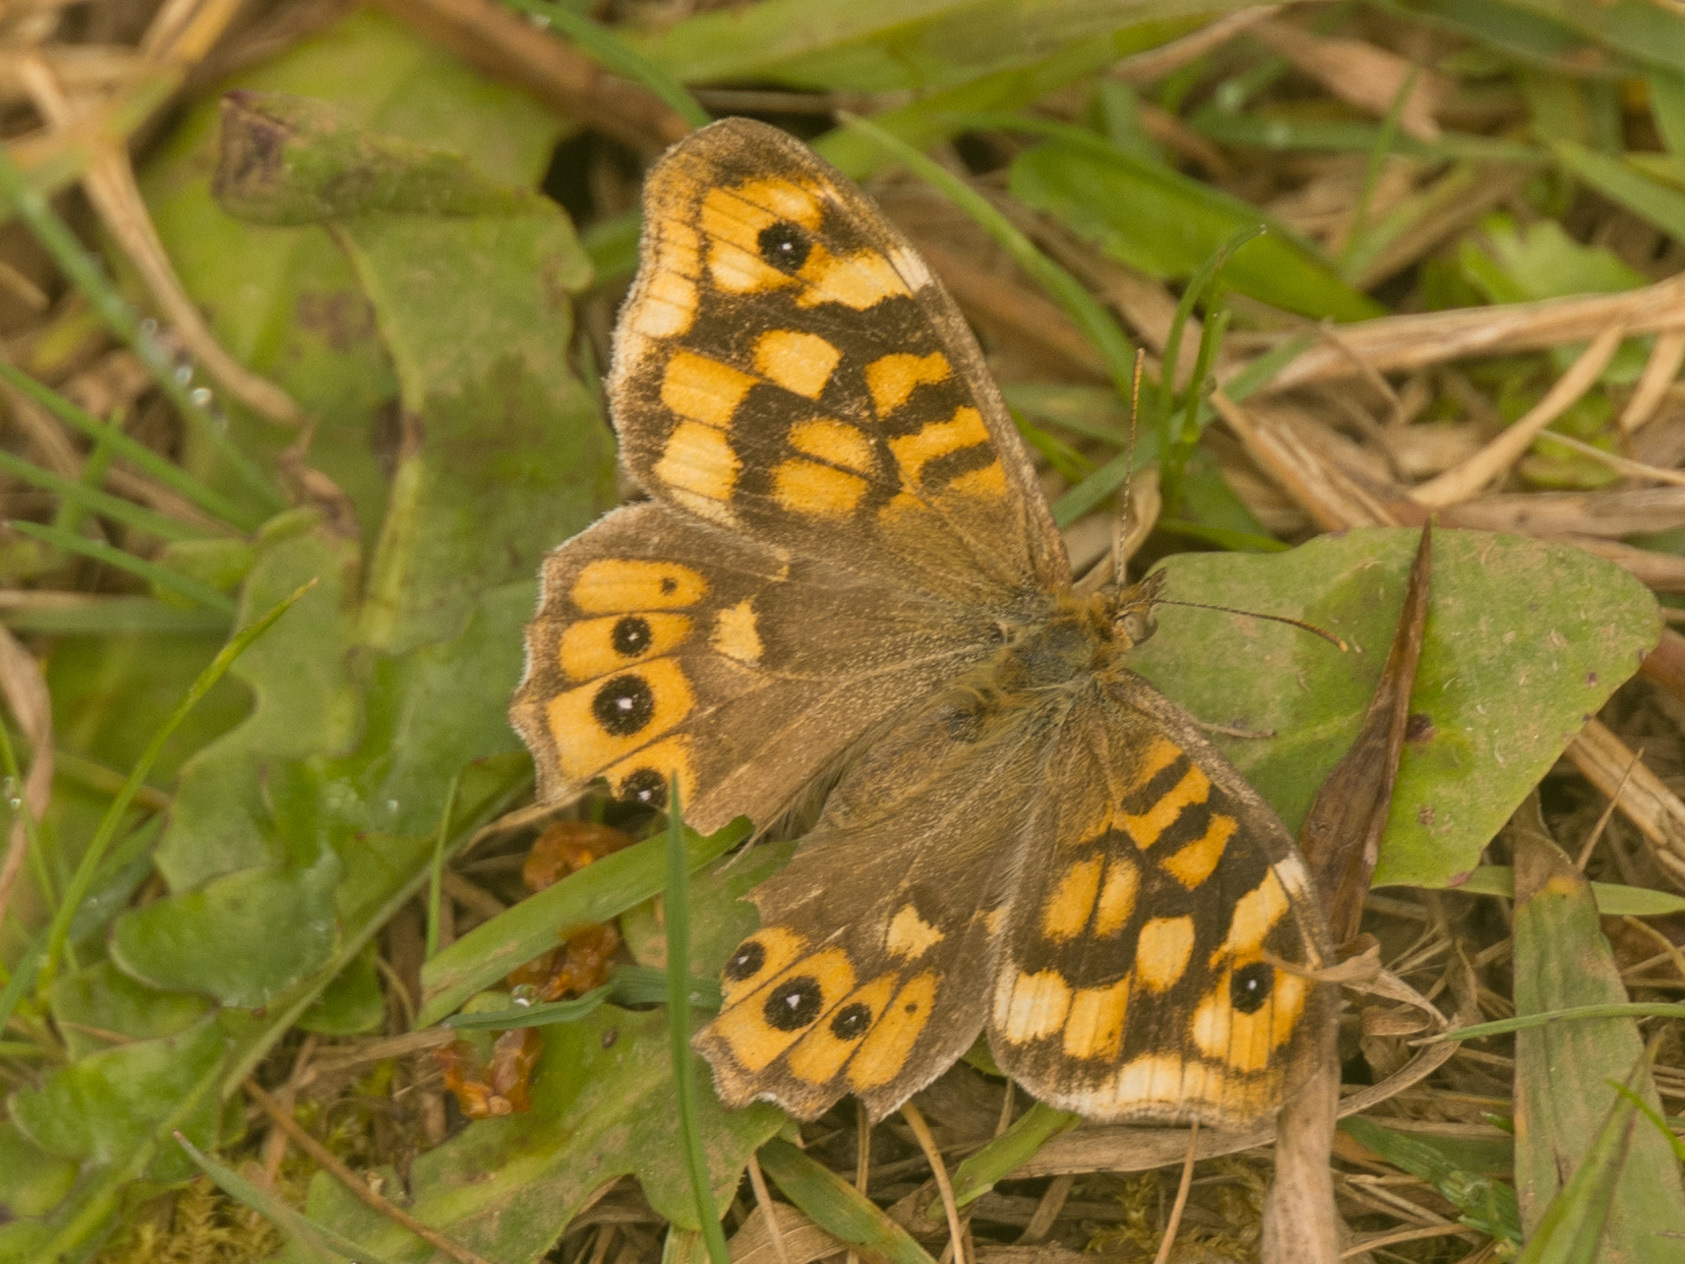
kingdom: Animalia
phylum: Arthropoda
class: Insecta
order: Lepidoptera
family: Nymphalidae
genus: Pararge
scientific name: Pararge aegeria
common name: Speckled wood
